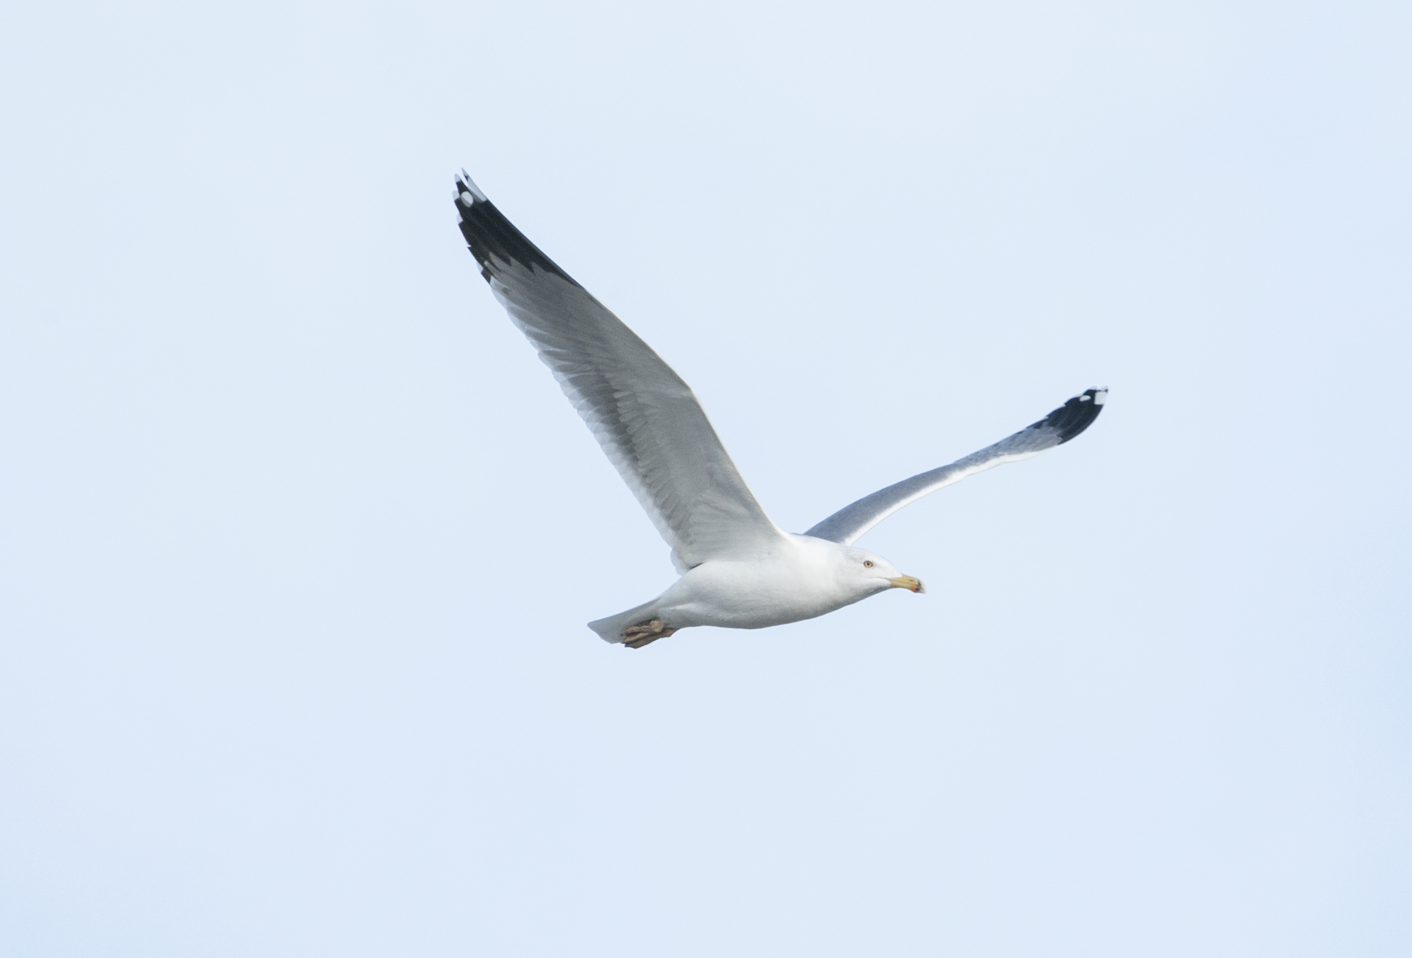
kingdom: Animalia
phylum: Chordata
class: Aves
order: Charadriiformes
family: Laridae
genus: Larus
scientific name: Larus michahellis
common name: Yellow-legged gull
